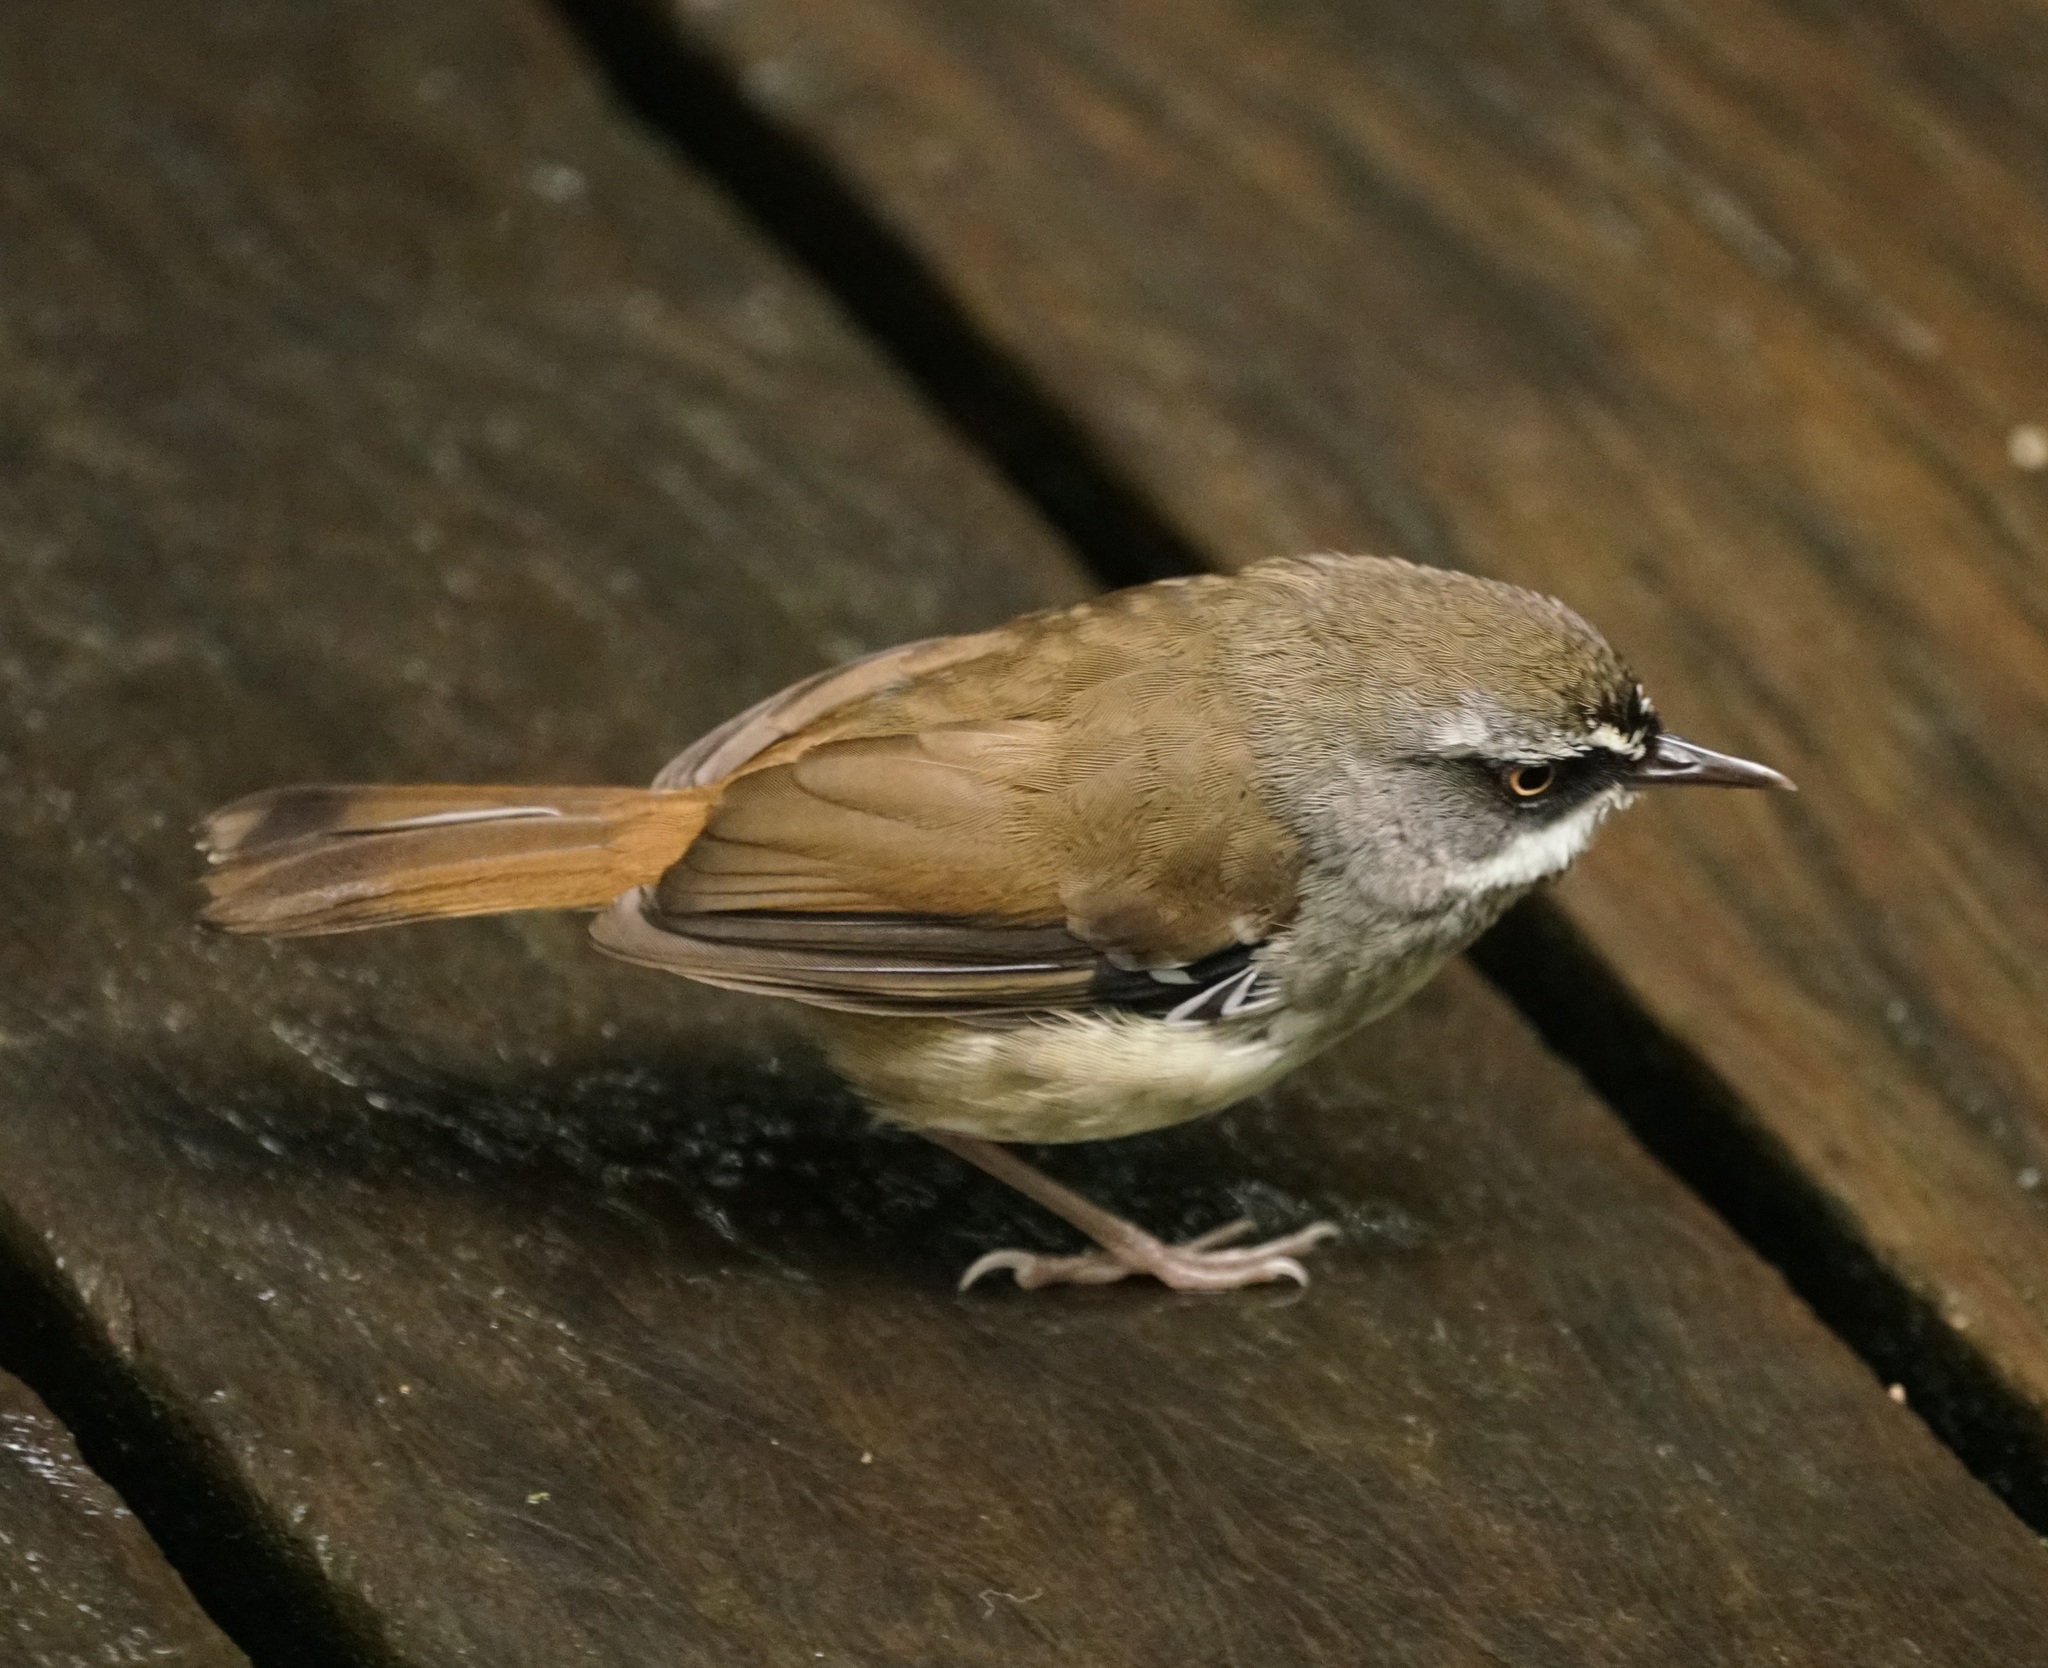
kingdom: Animalia
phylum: Chordata
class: Aves
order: Passeriformes
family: Acanthizidae
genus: Sericornis
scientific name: Sericornis frontalis
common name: White-browed scrubwren
